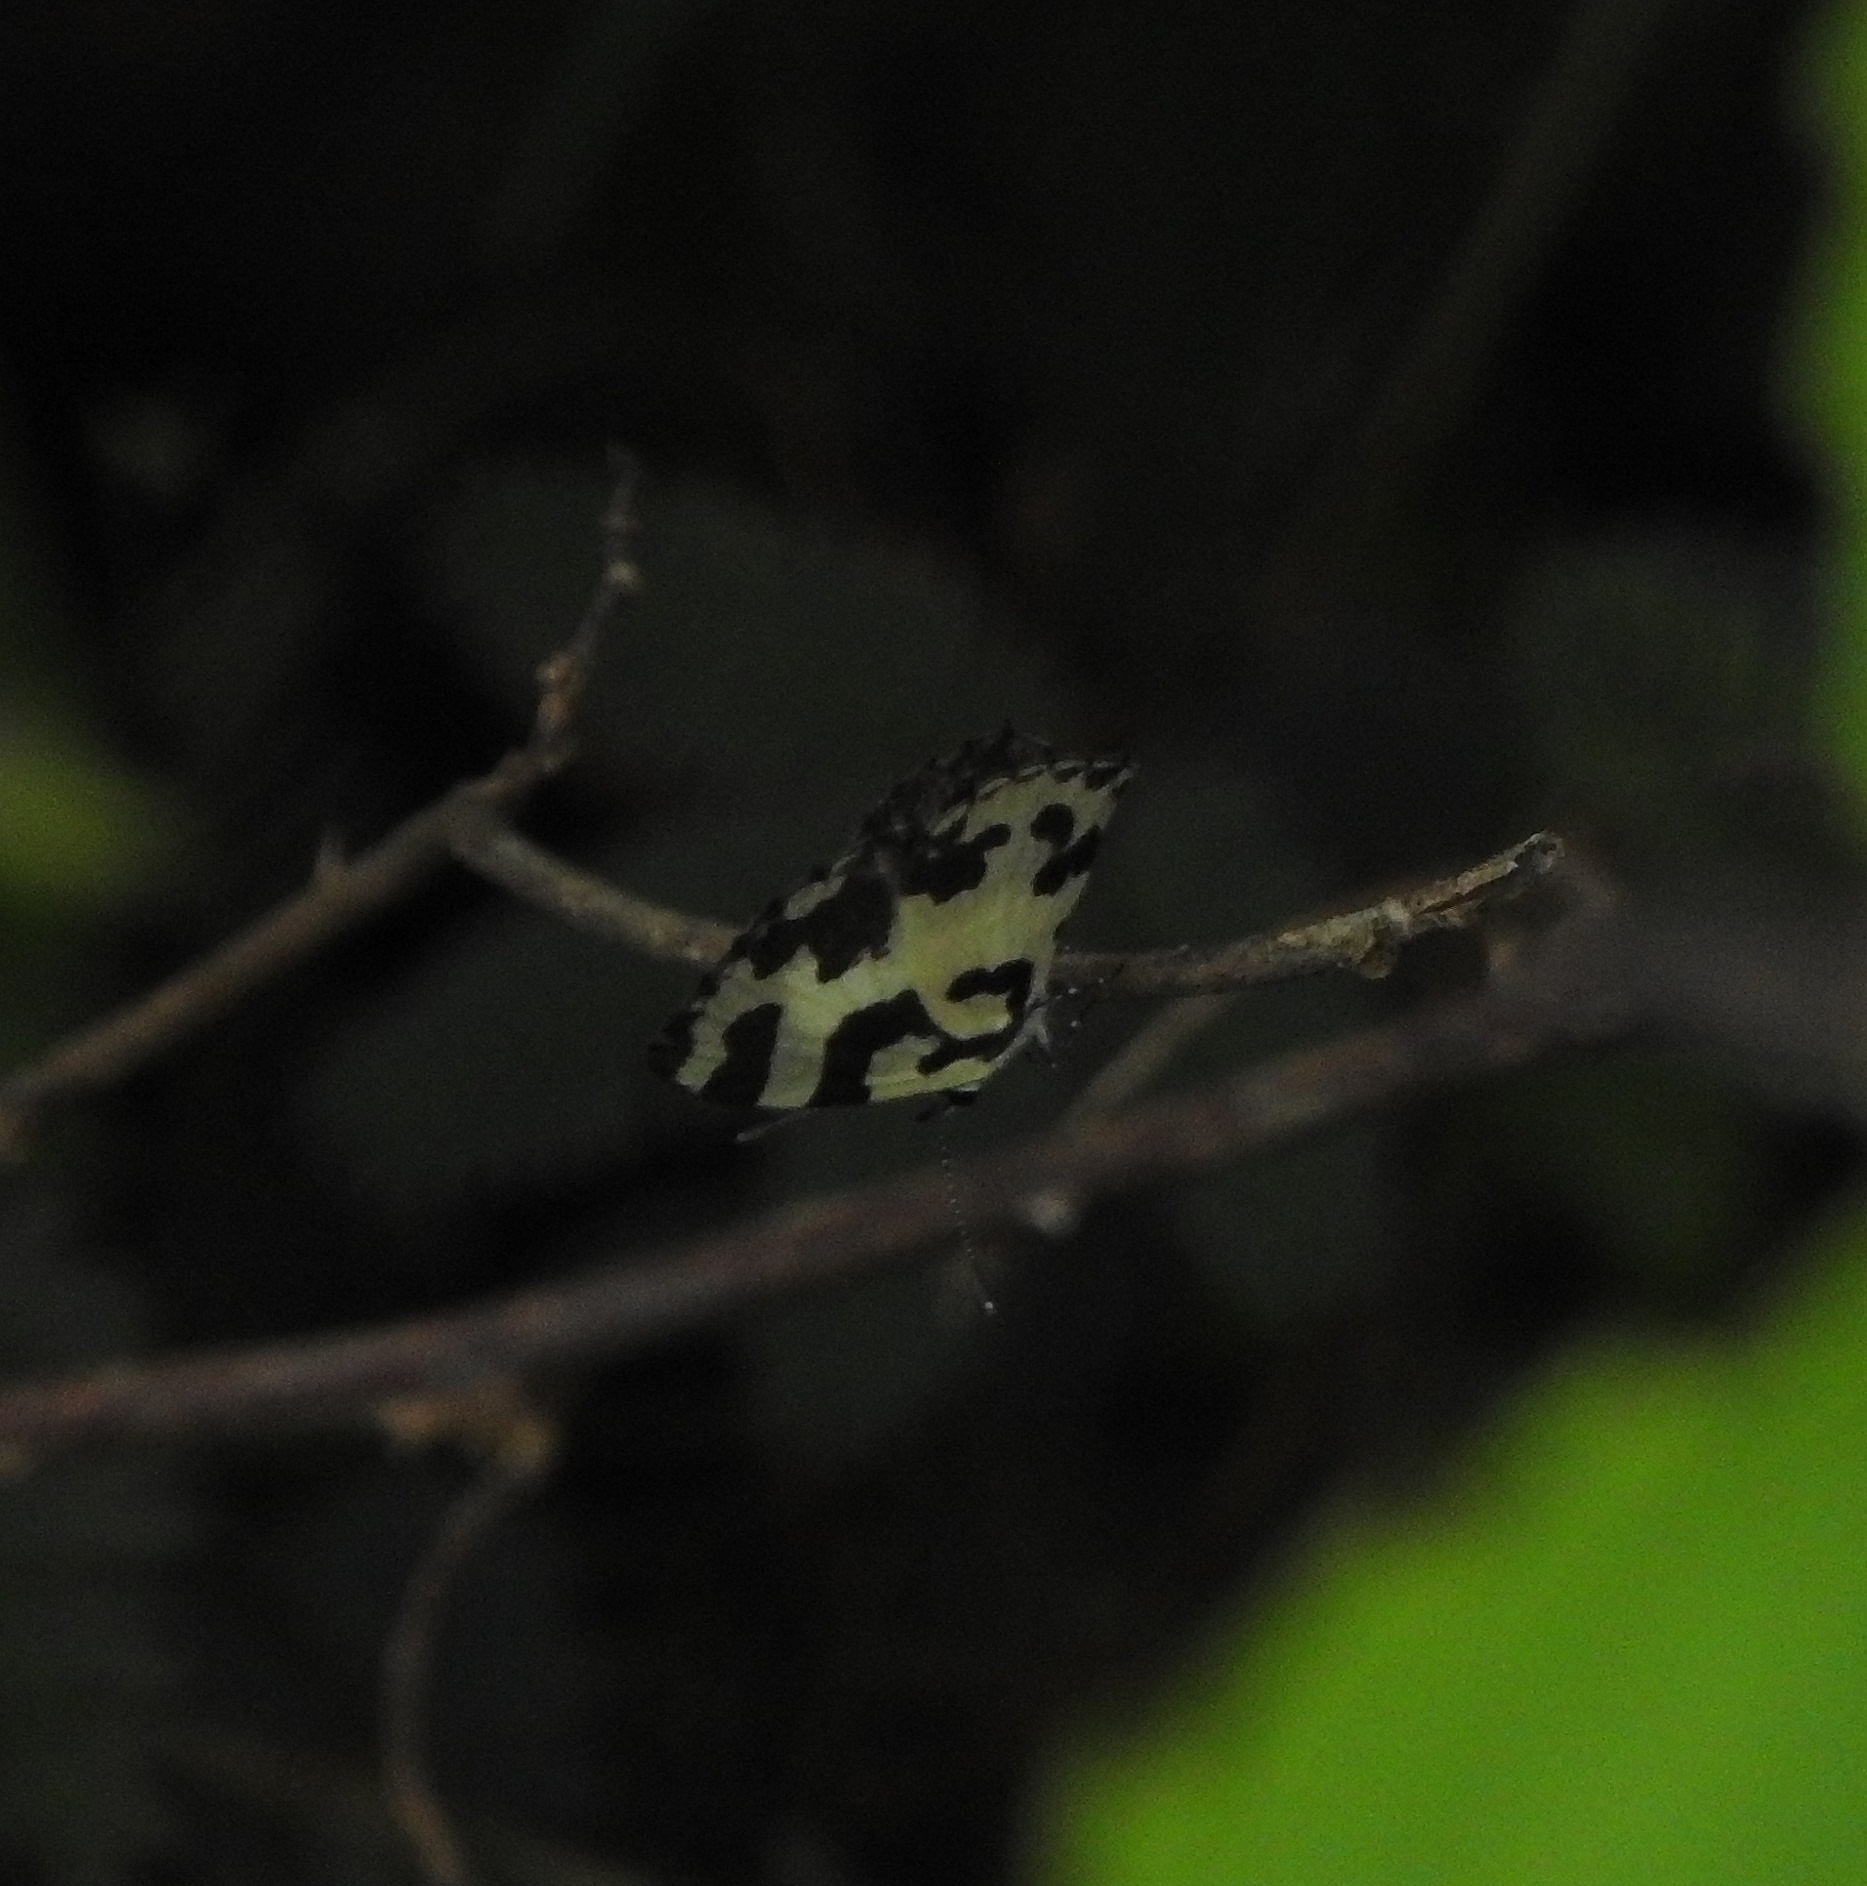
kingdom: Animalia
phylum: Arthropoda
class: Insecta
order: Lepidoptera
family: Lycaenidae
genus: Caleta
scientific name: Caleta decidia
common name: Angled pierrot
